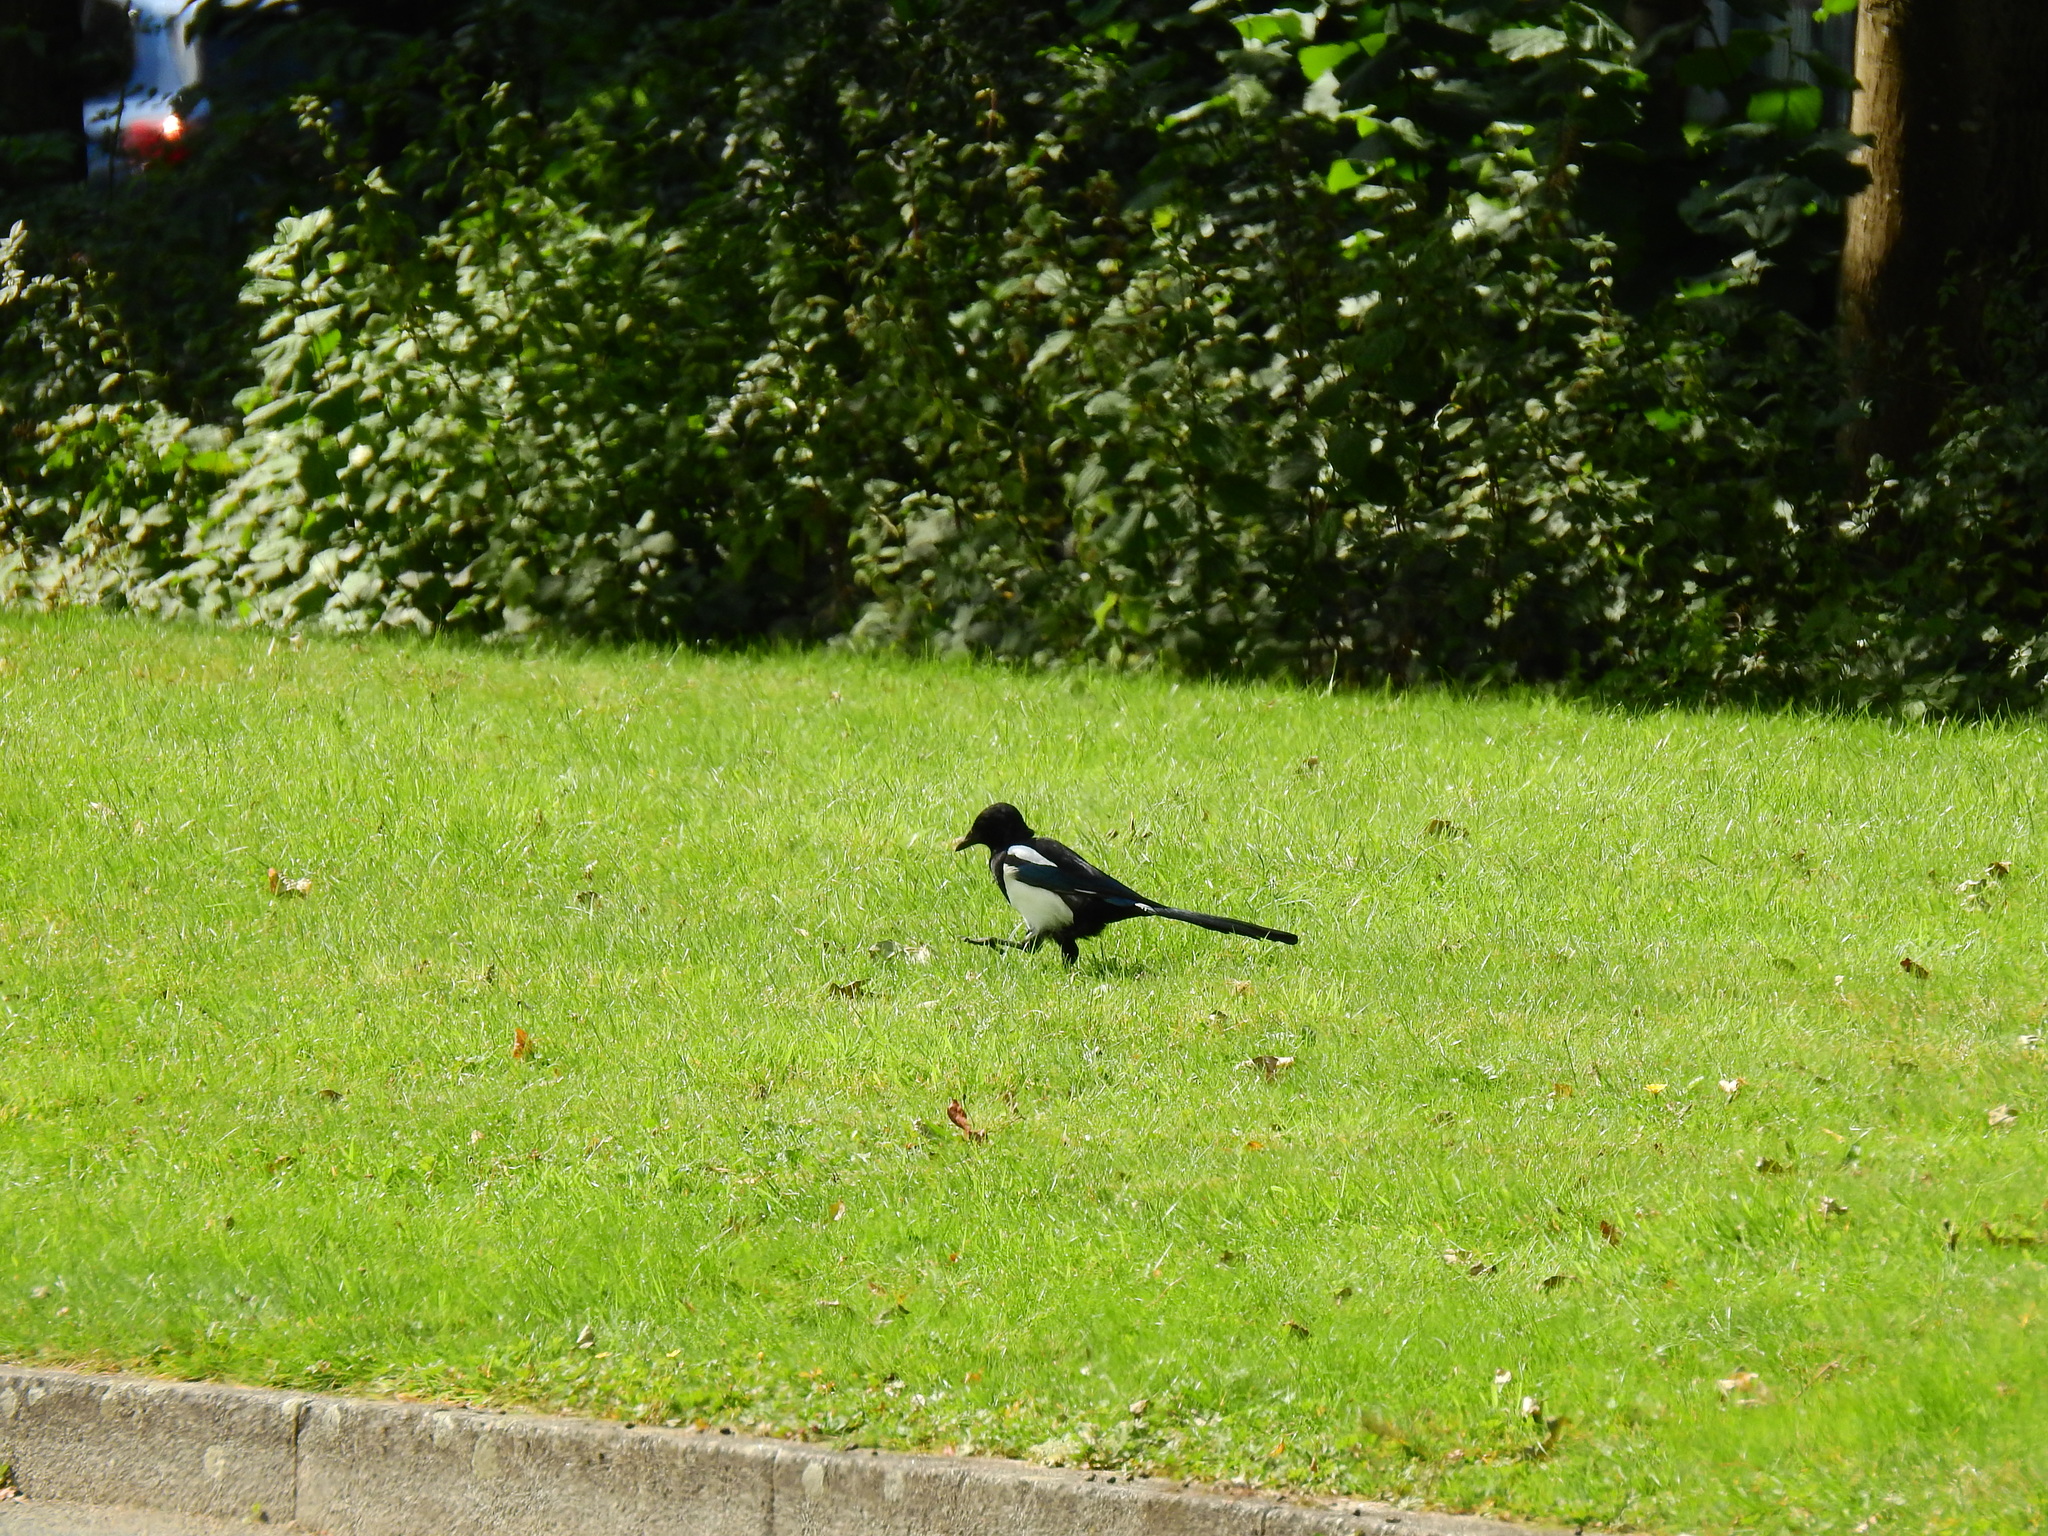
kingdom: Animalia
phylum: Chordata
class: Aves
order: Passeriformes
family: Corvidae
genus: Pica
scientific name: Pica pica
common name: Eurasian magpie
